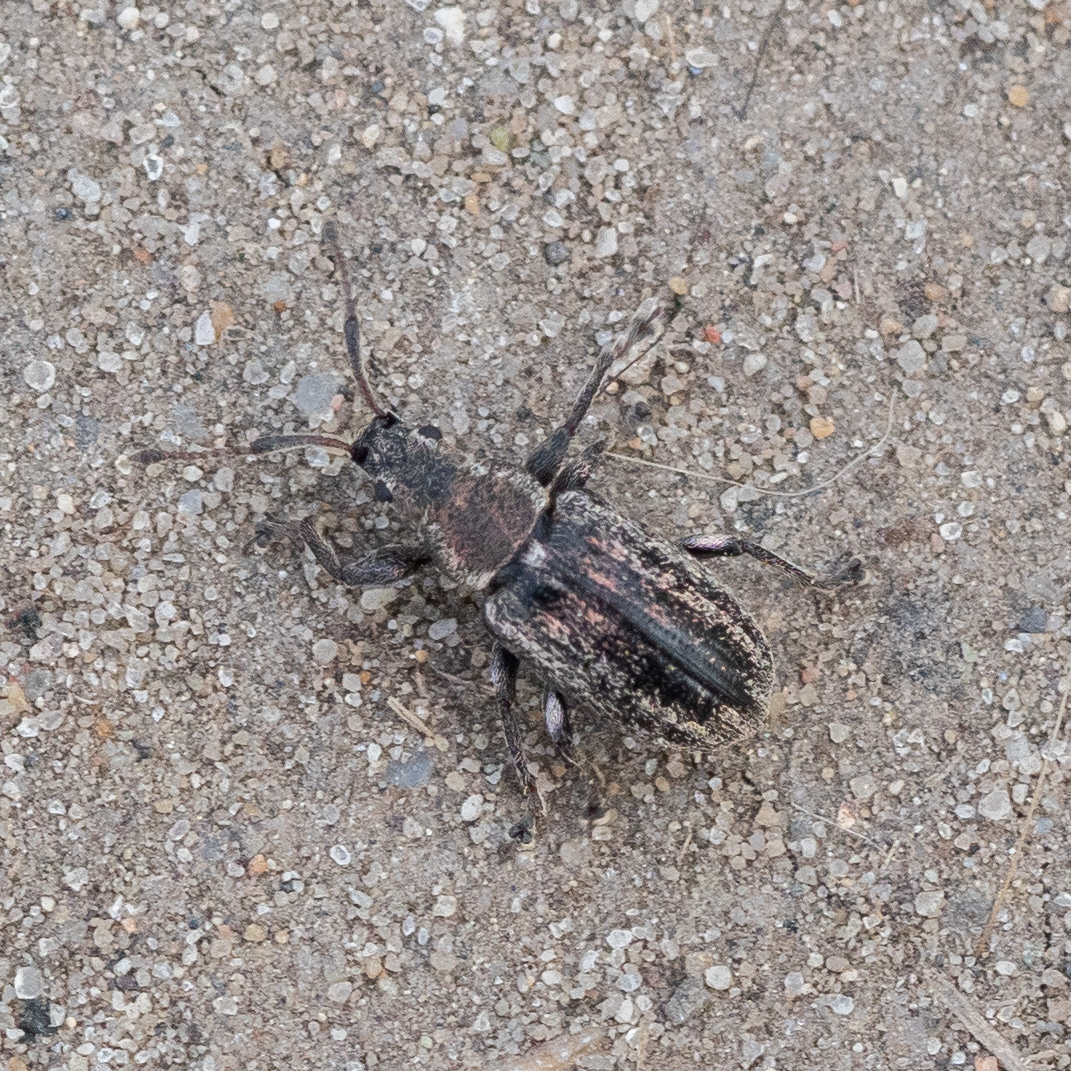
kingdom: Animalia
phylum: Arthropoda
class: Insecta
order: Coleoptera
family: Curculionidae
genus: Phyllobius
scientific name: Phyllobius pyri
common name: Common leaf weevil
